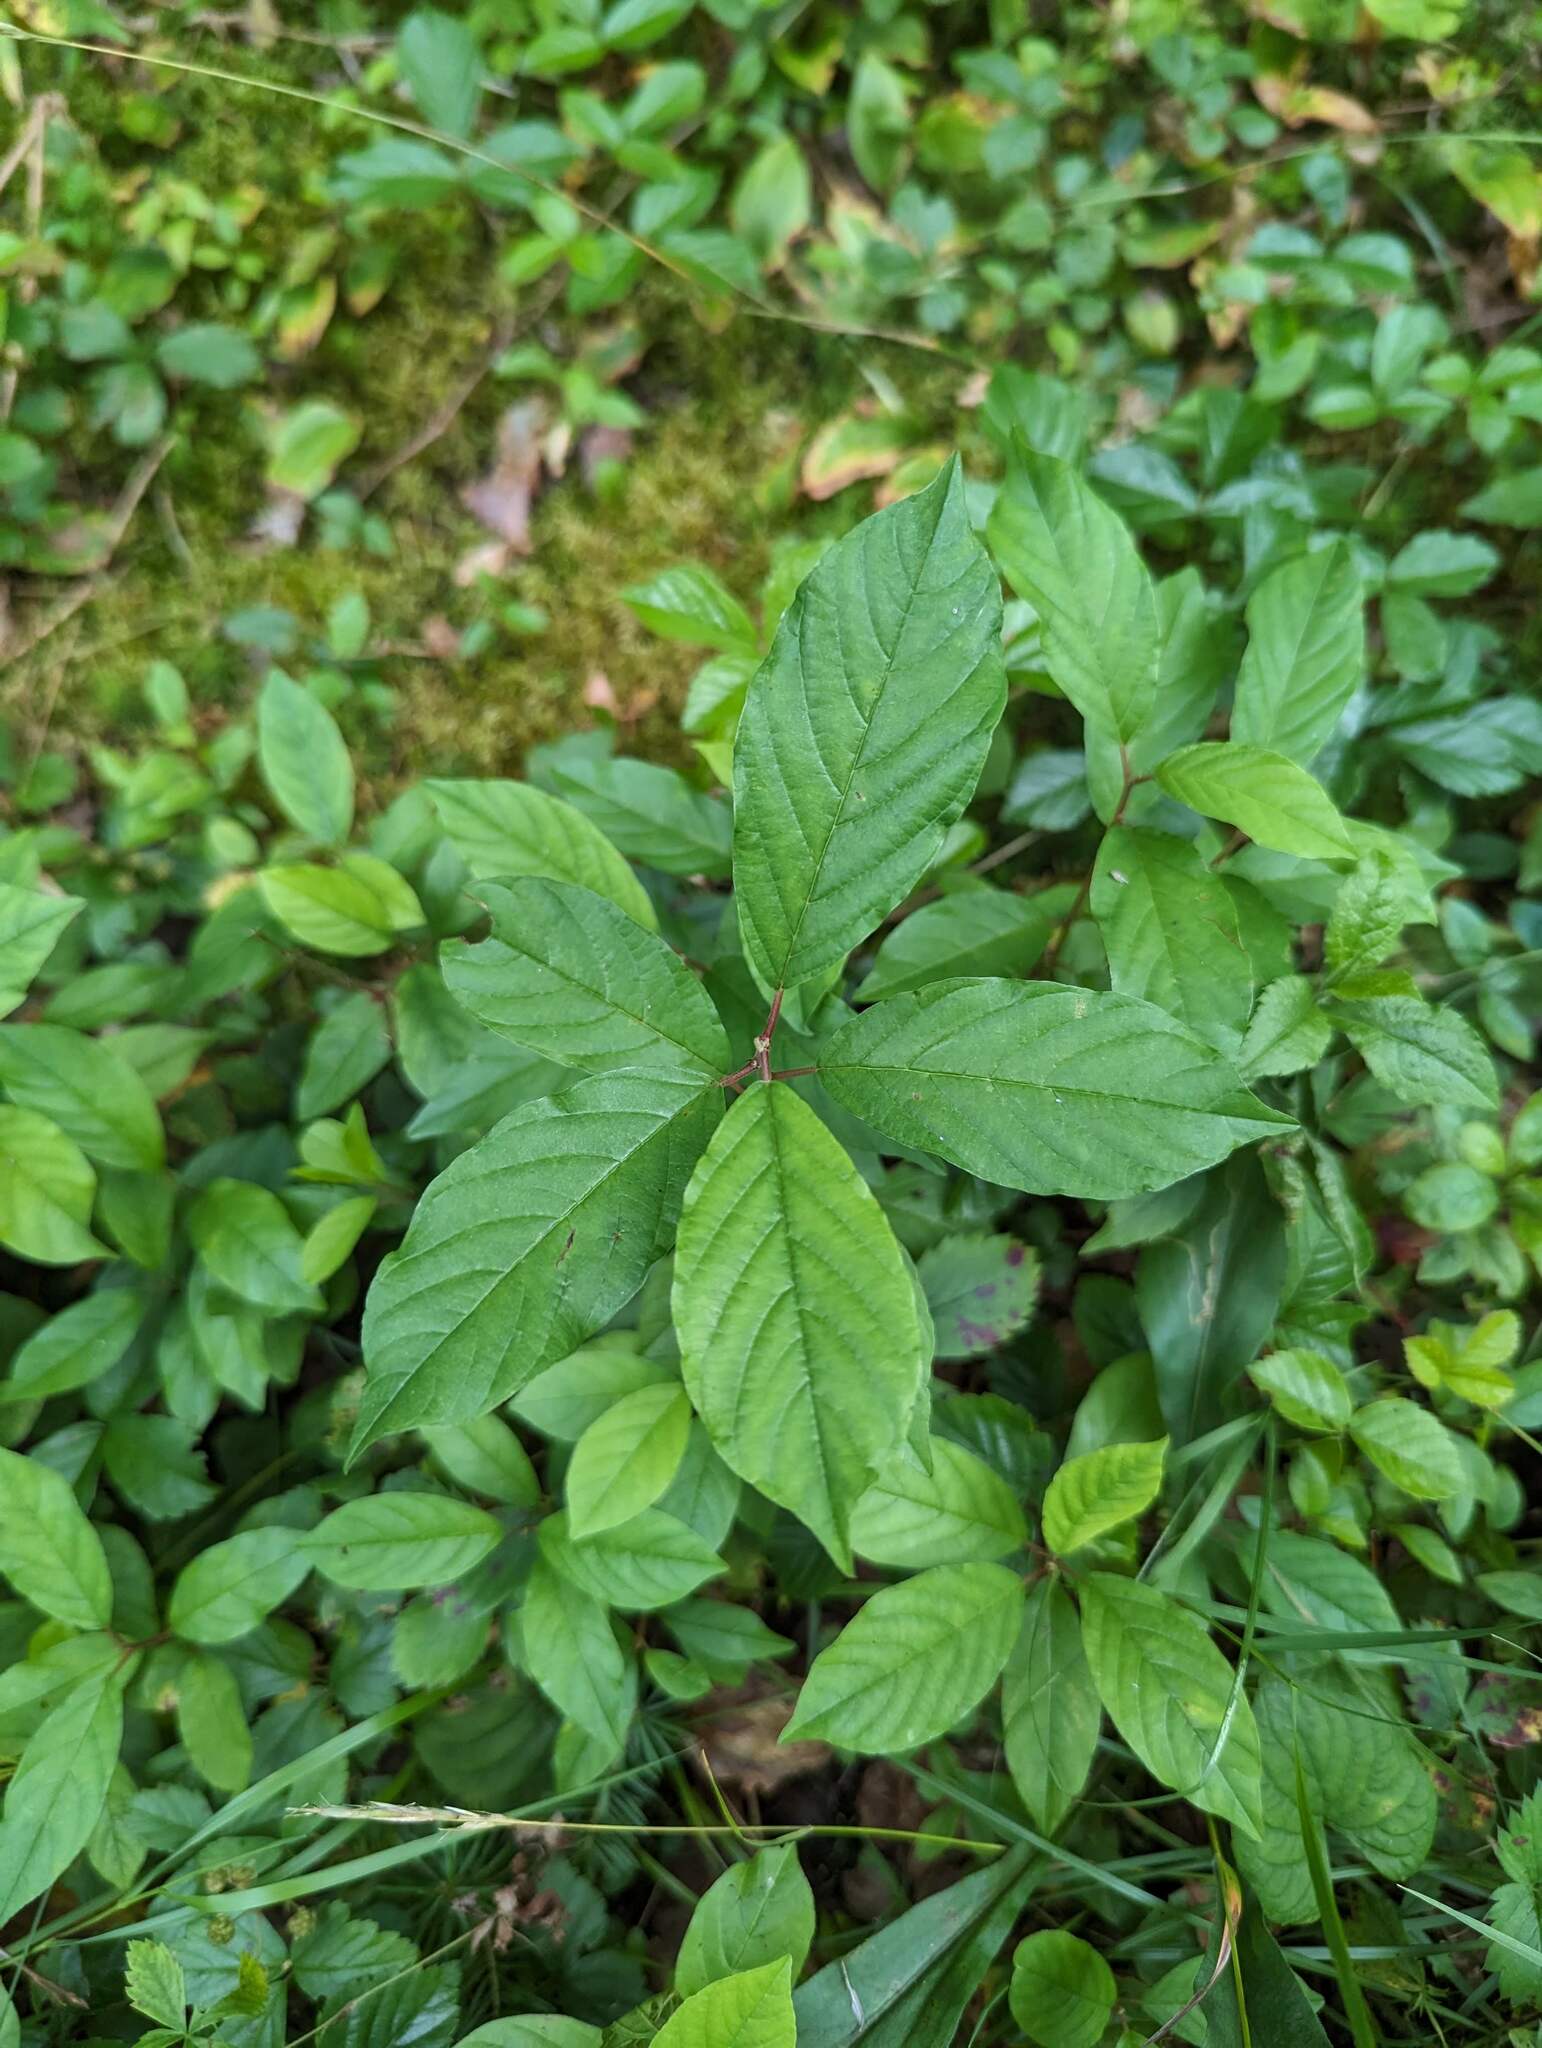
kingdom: Plantae
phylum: Tracheophyta
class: Magnoliopsida
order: Rosales
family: Rhamnaceae
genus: Frangula
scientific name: Frangula alnus
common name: Alder buckthorn
